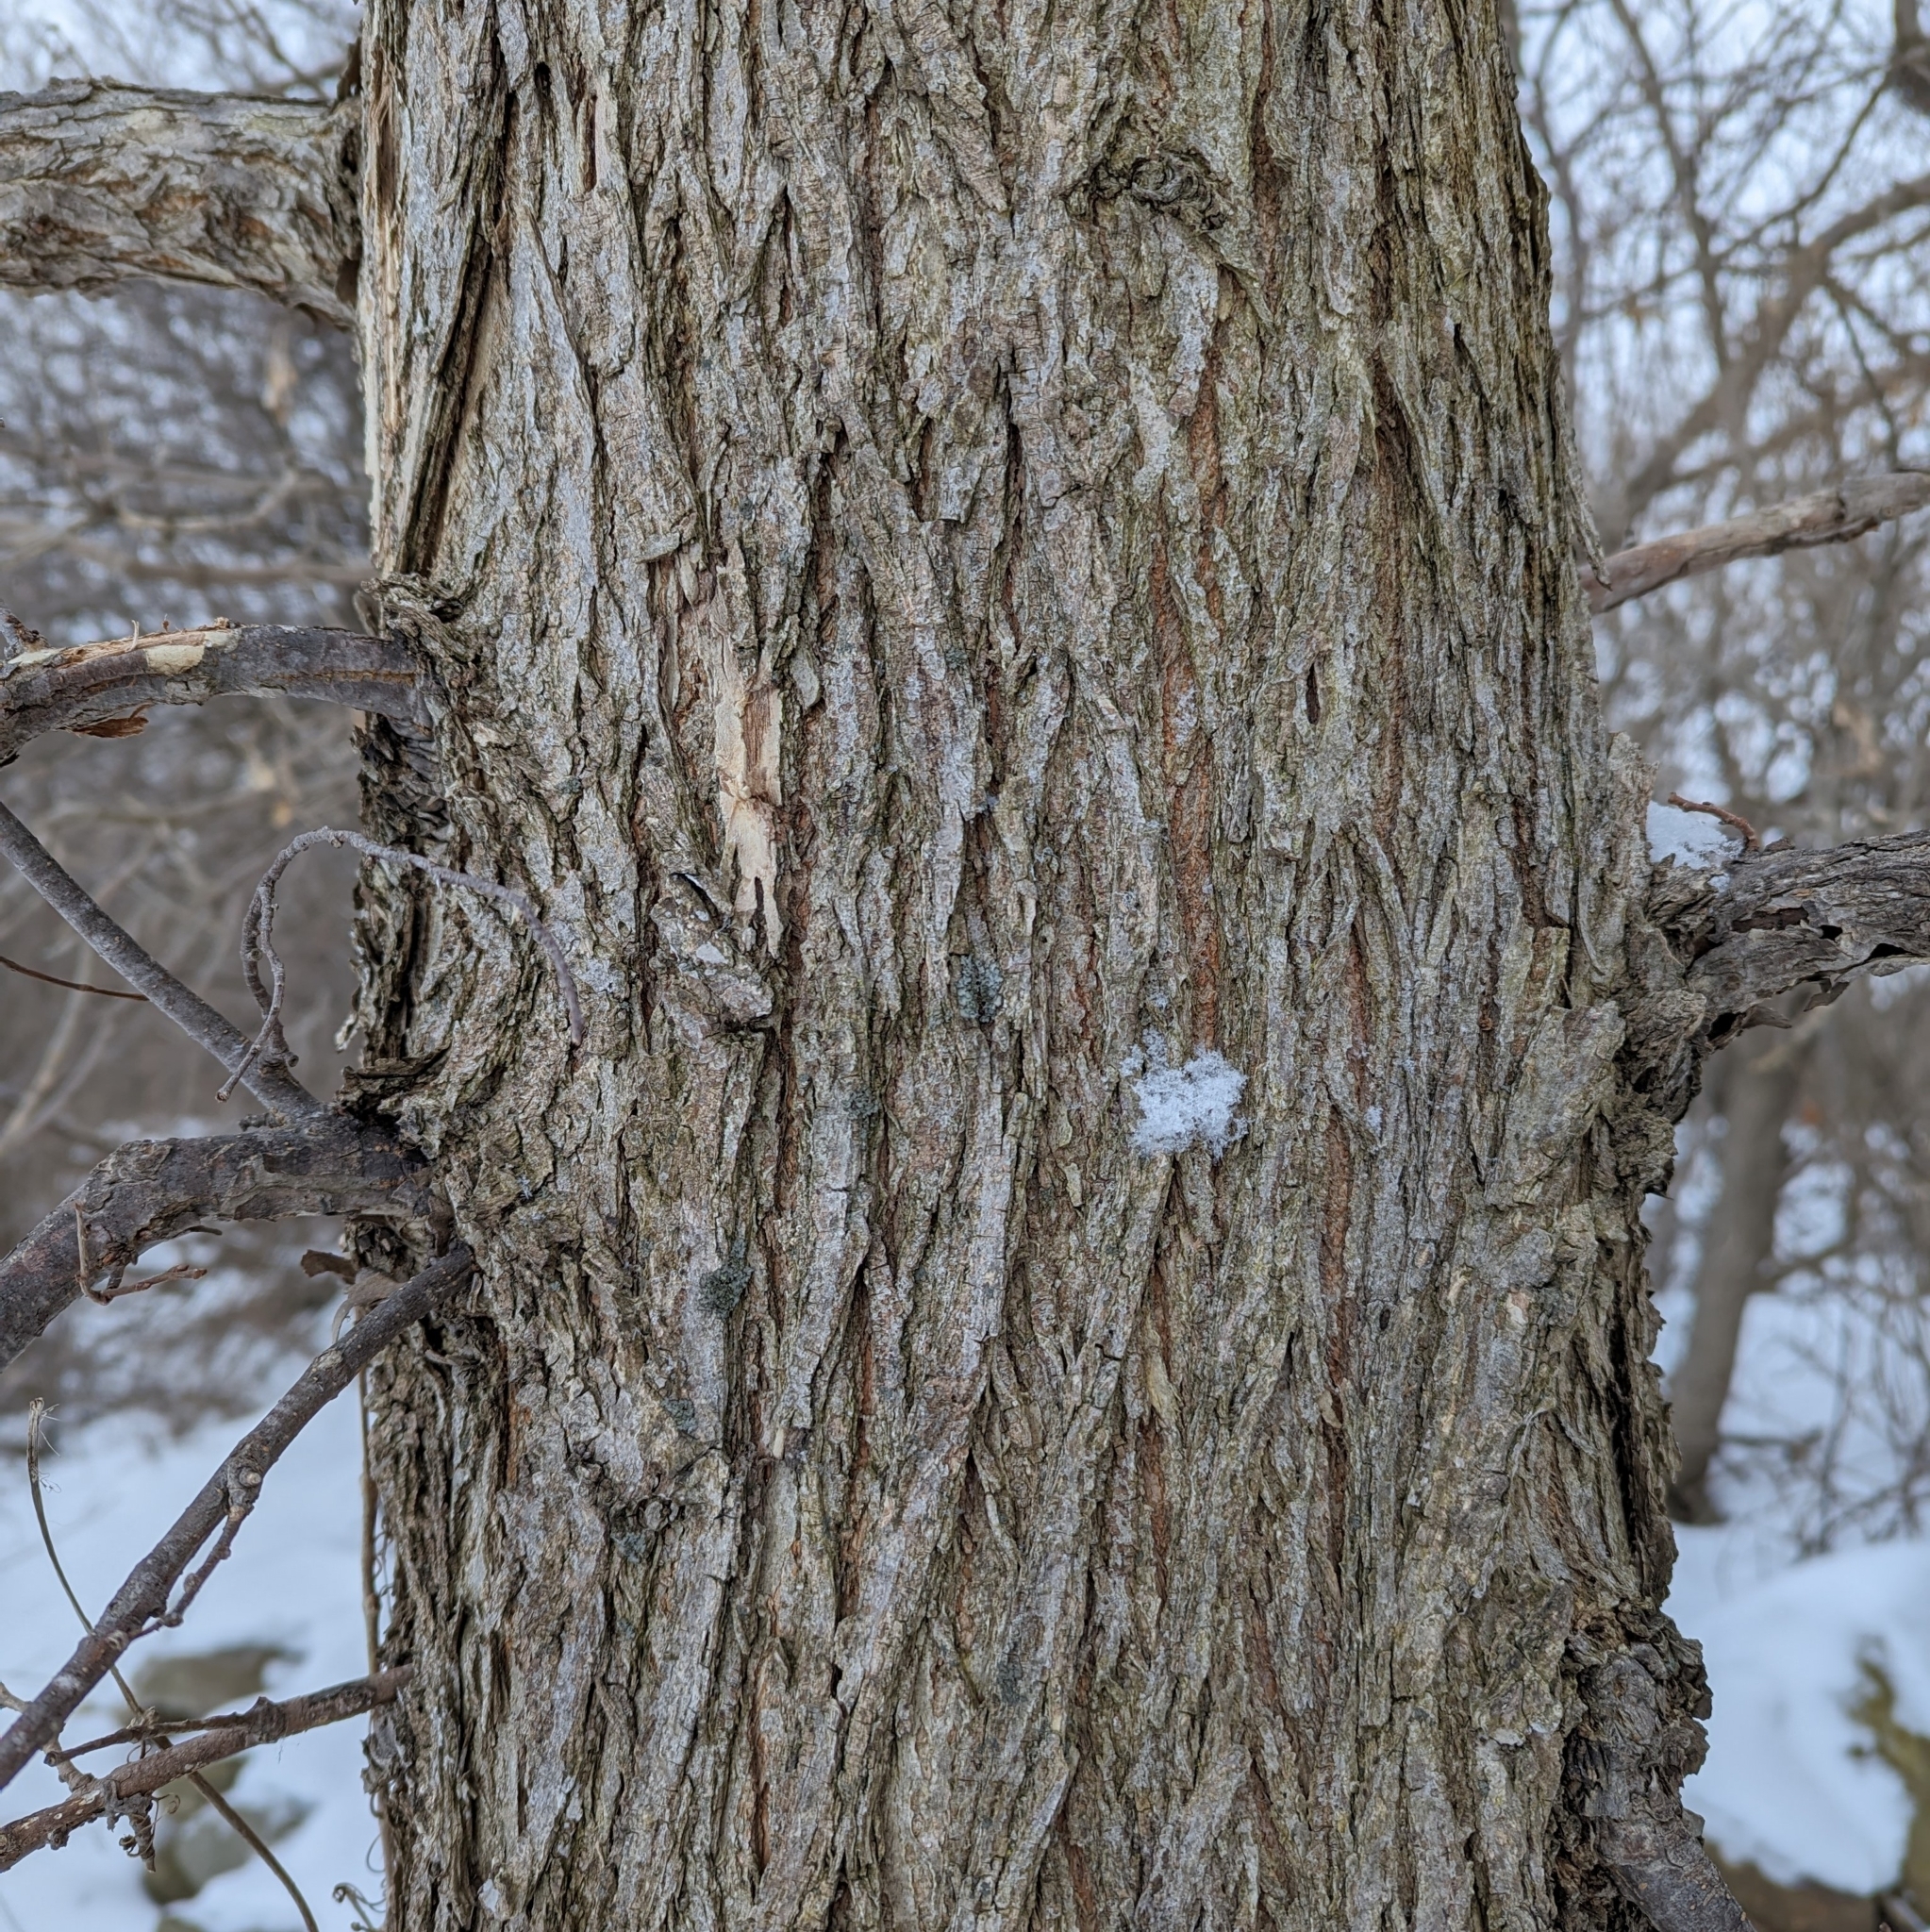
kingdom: Plantae
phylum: Tracheophyta
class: Magnoliopsida
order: Rosales
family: Ulmaceae
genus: Ulmus
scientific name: Ulmus
